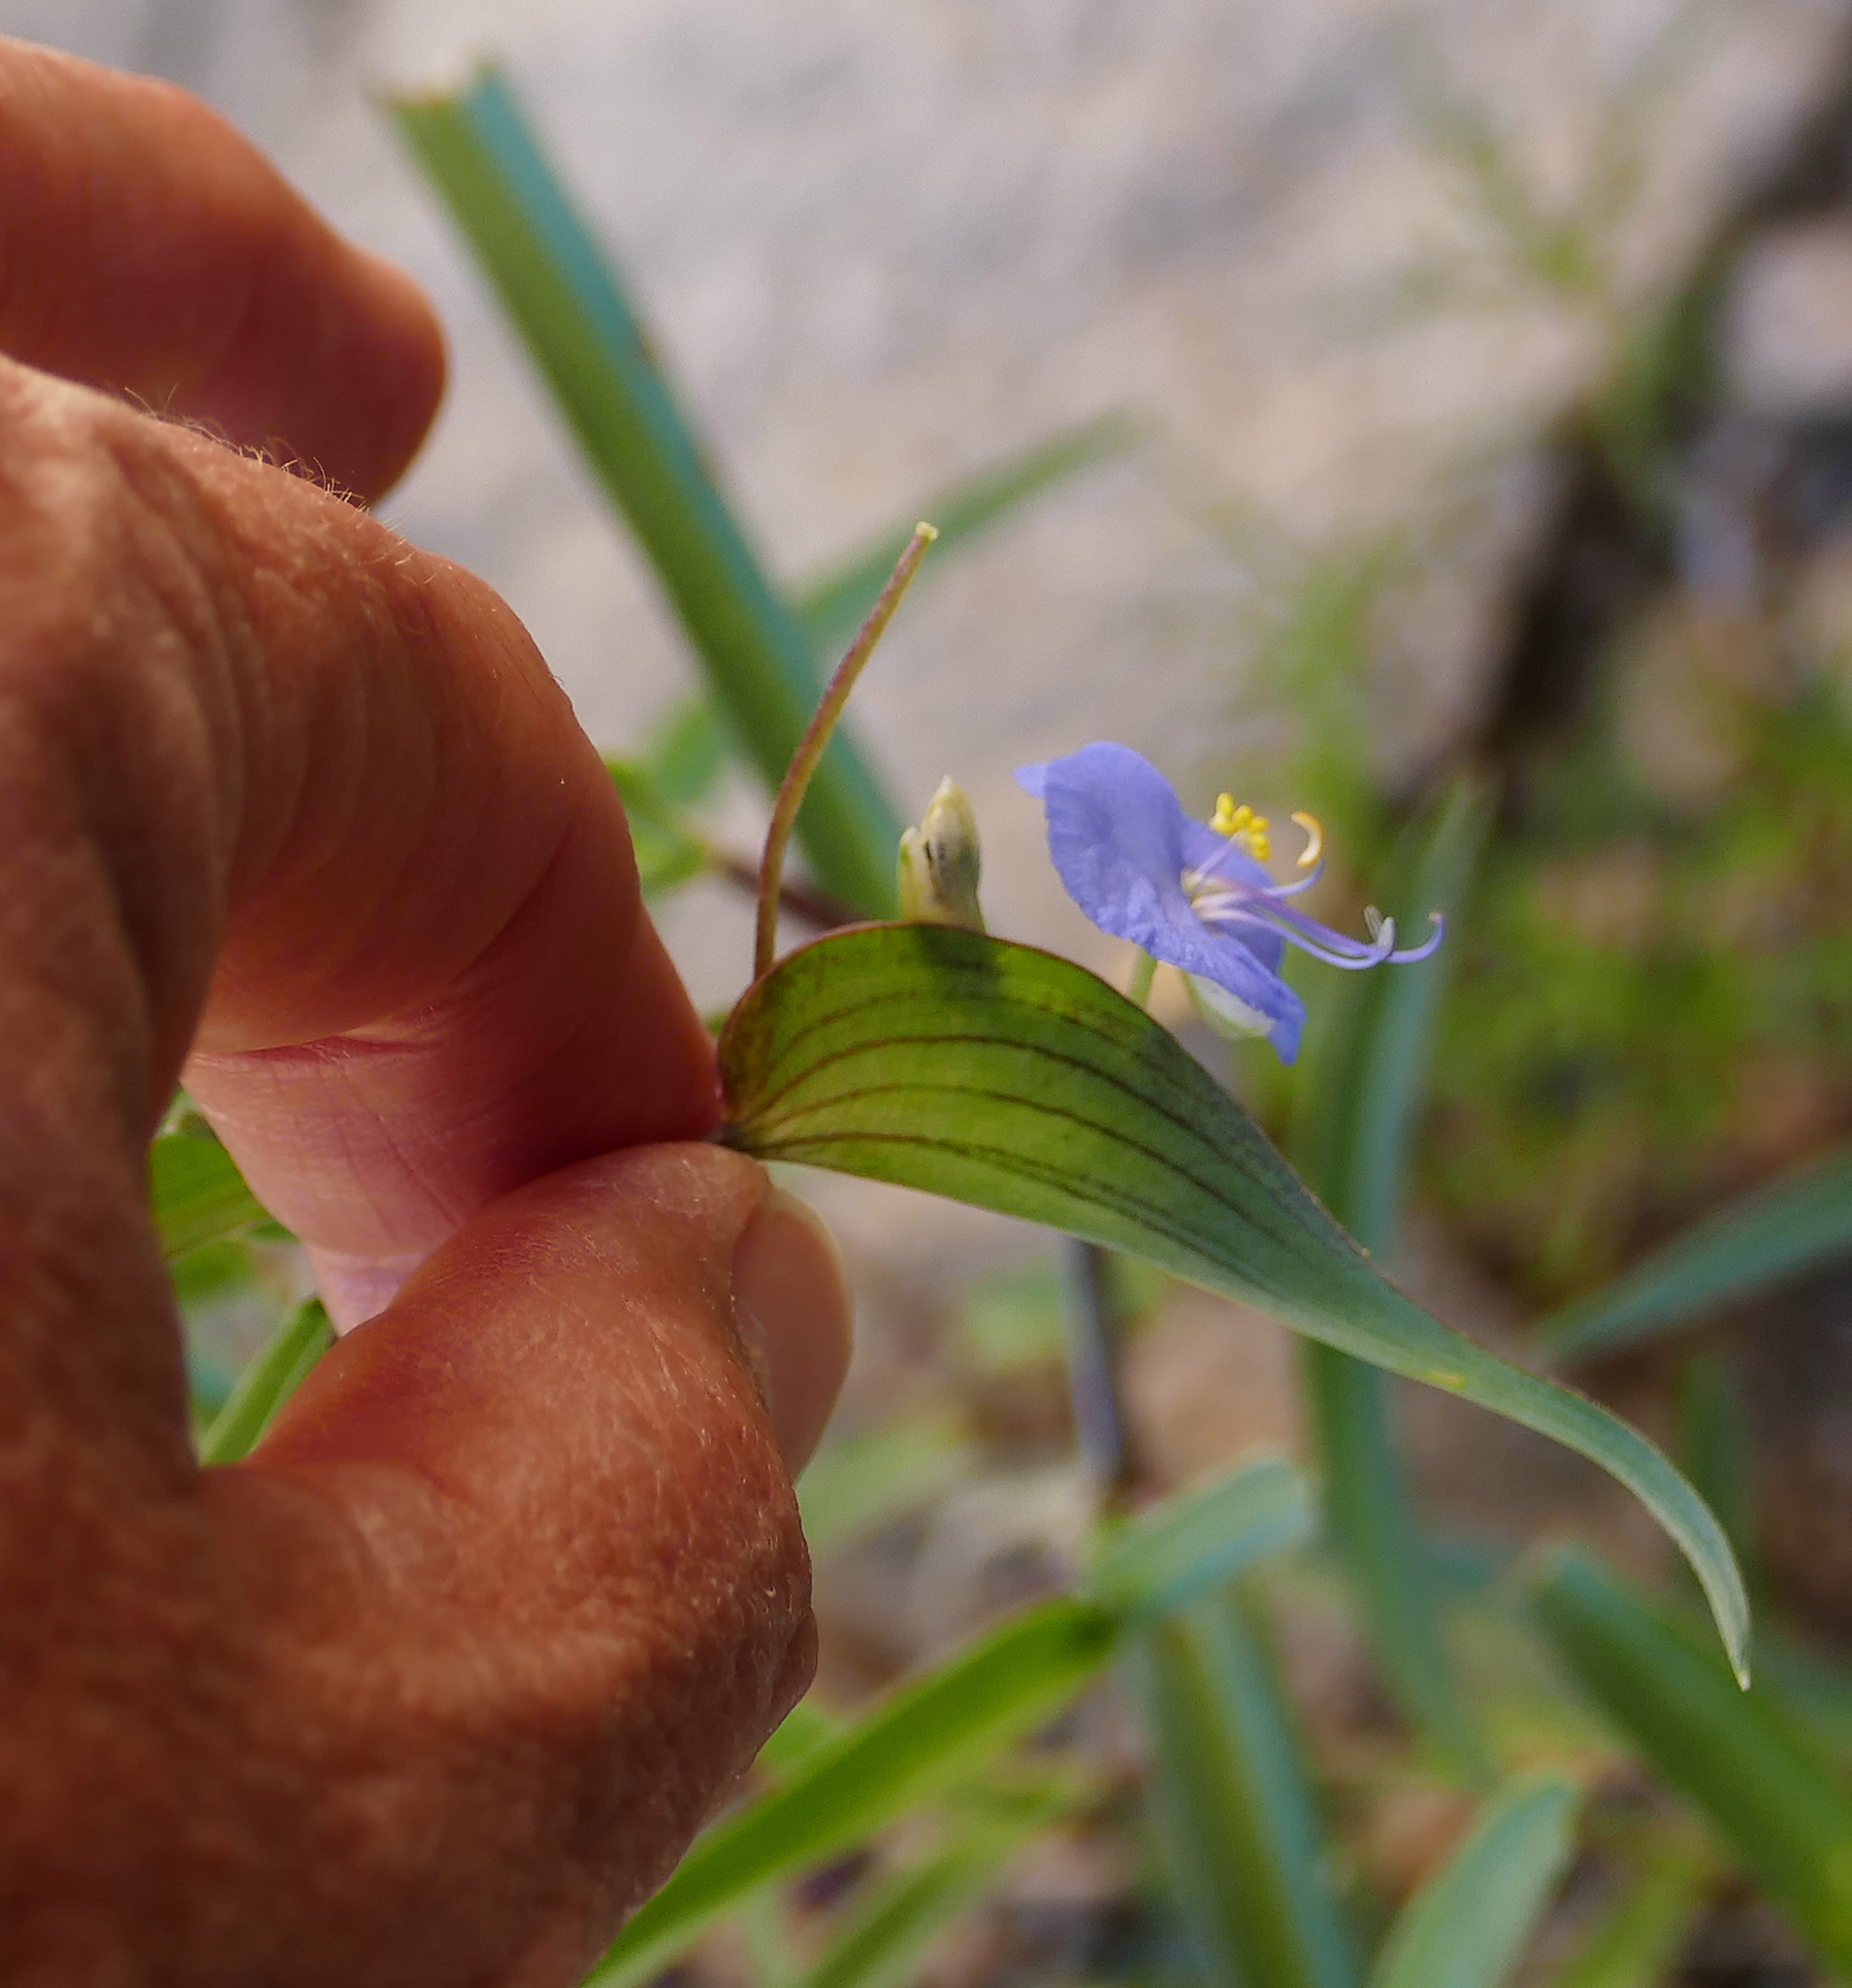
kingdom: Plantae
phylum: Tracheophyta
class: Liliopsida
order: Commelinales
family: Commelinaceae
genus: Commelina
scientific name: Commelina dianthifolia
